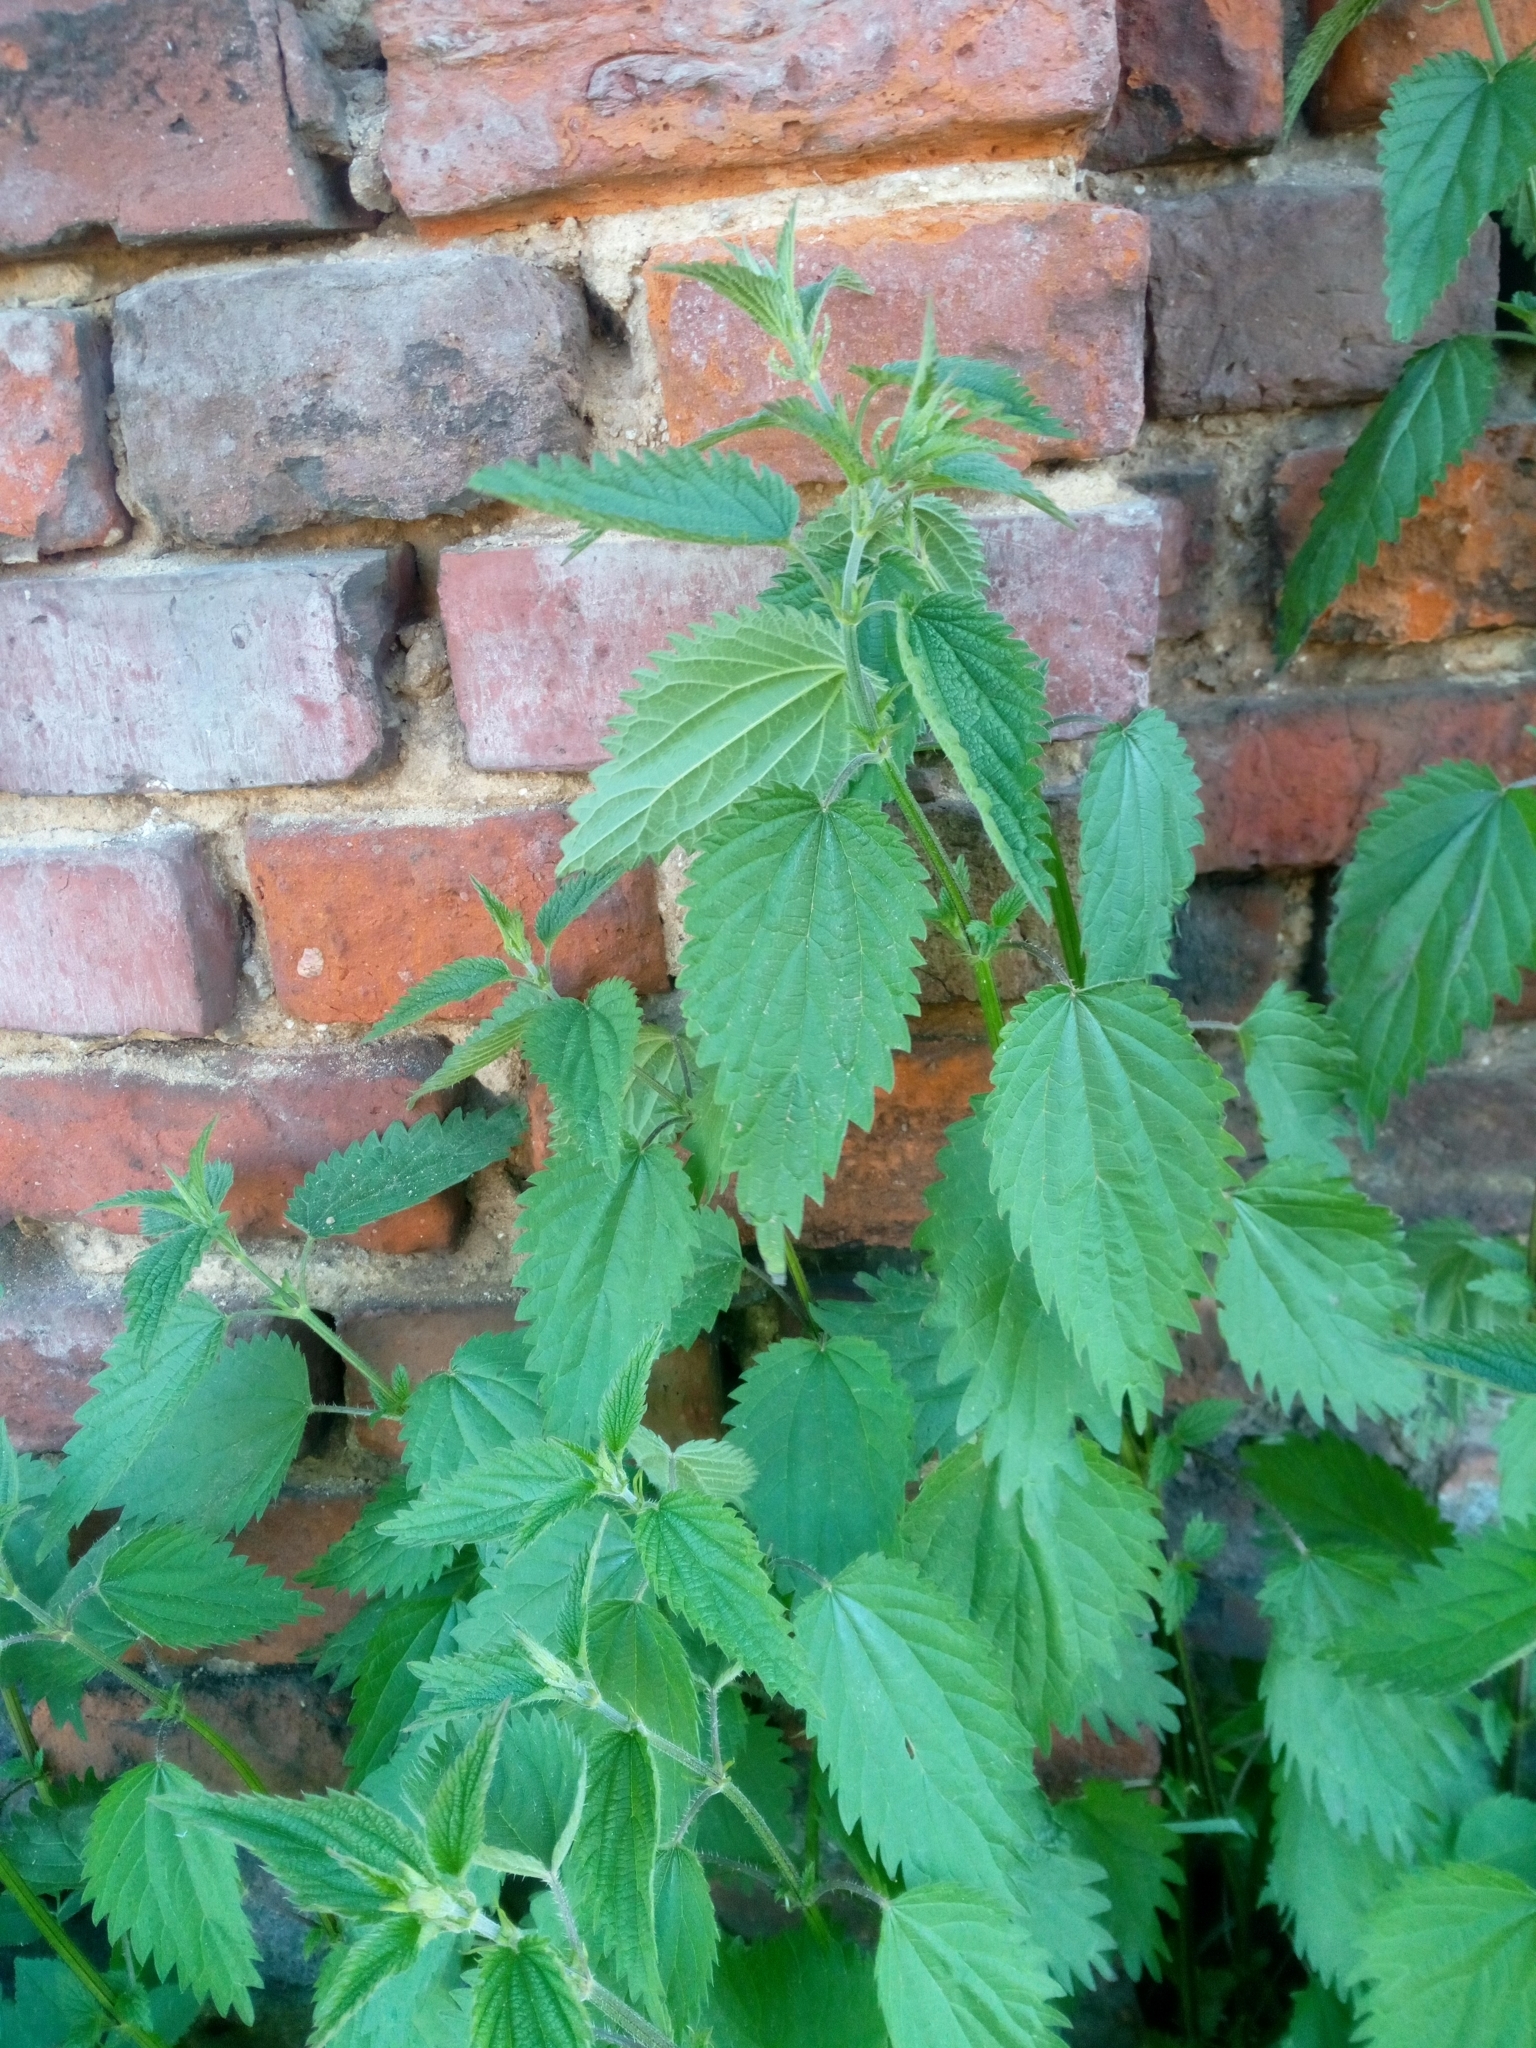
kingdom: Plantae
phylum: Tracheophyta
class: Magnoliopsida
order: Rosales
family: Urticaceae
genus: Urtica
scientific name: Urtica dioica
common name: Common nettle
